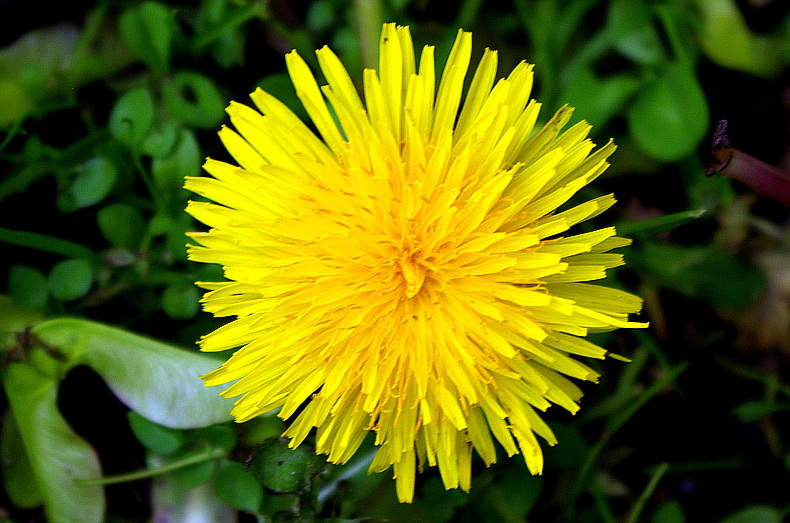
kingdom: Plantae
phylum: Tracheophyta
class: Magnoliopsida
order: Asterales
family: Asteraceae
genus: Taraxacum
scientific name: Taraxacum officinale
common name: Common dandelion
